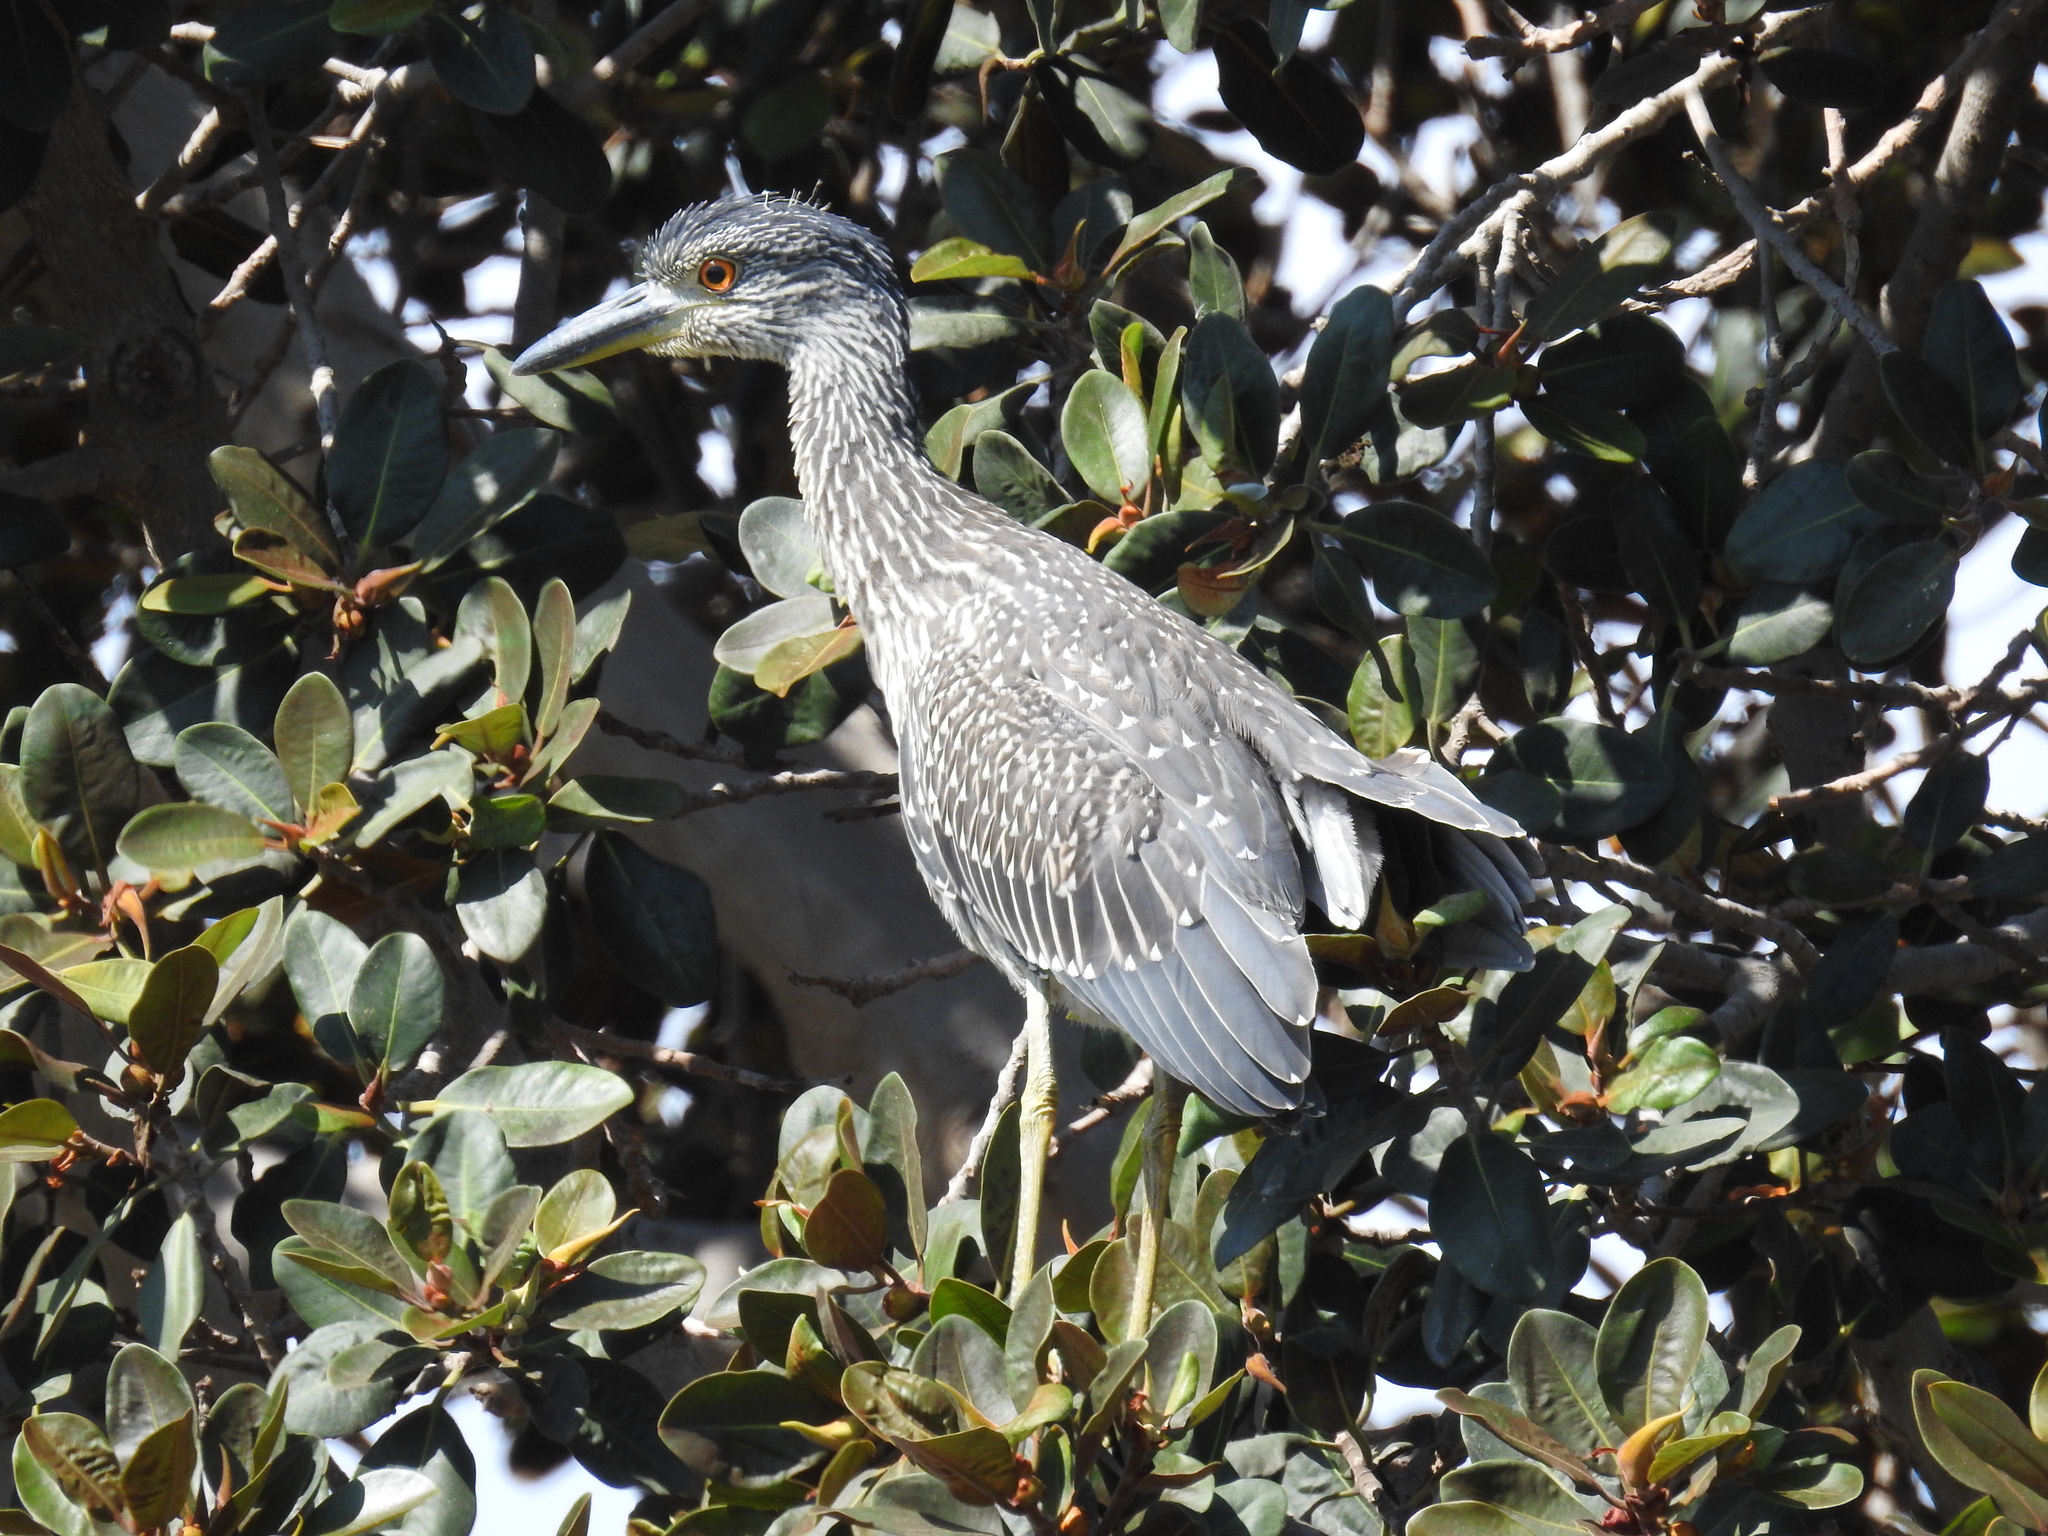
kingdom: Animalia
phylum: Chordata
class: Aves
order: Pelecaniformes
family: Ardeidae
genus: Nyctanassa
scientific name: Nyctanassa violacea
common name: Yellow-crowned night heron
